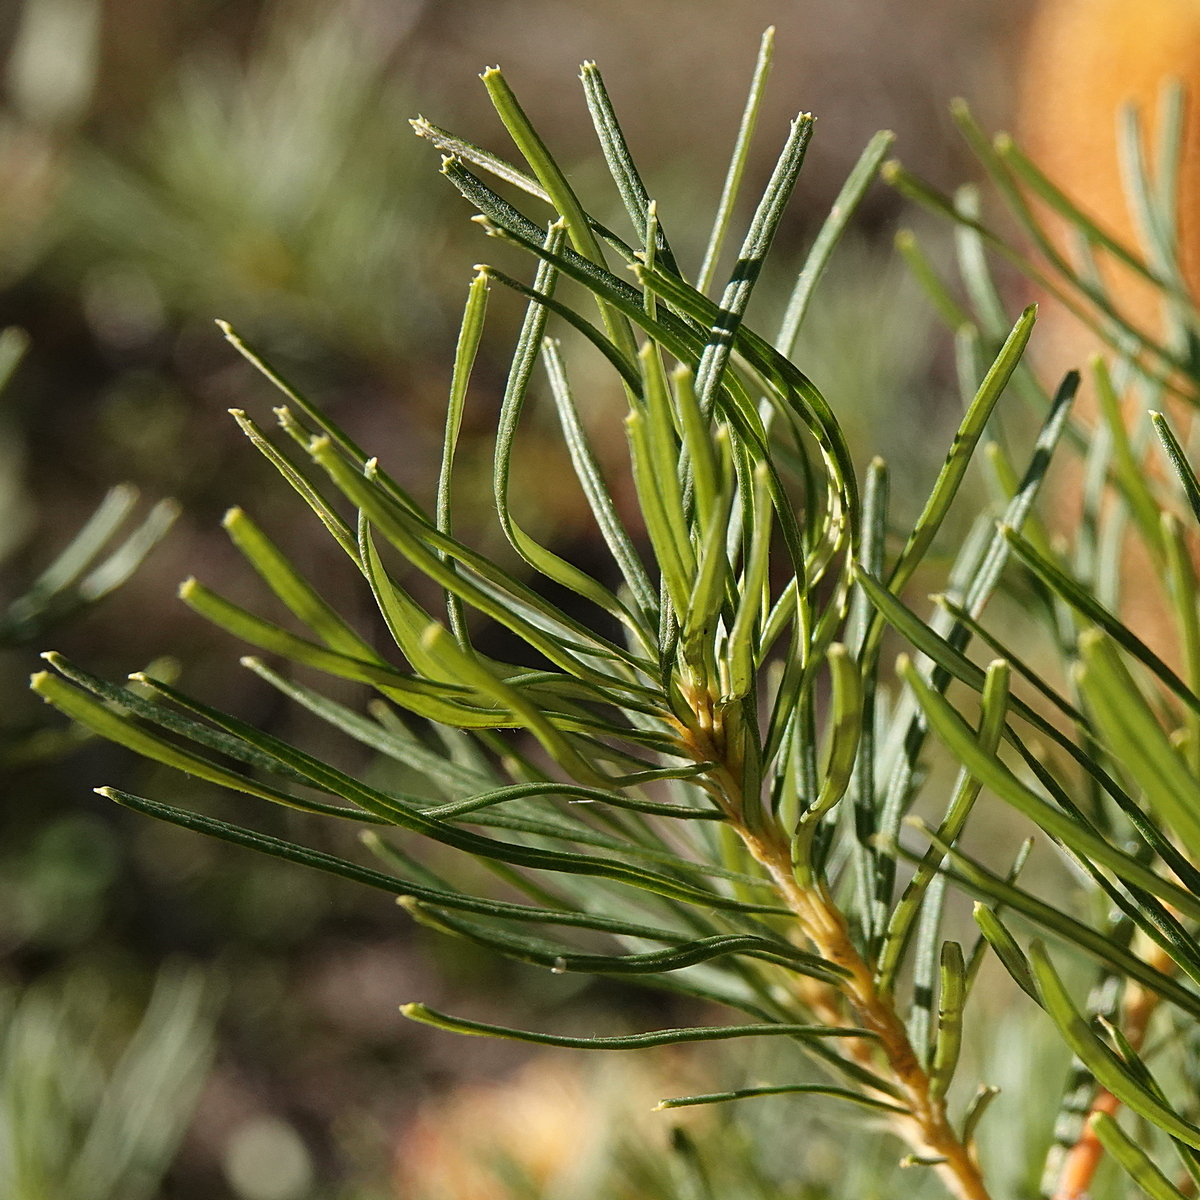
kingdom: Plantae
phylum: Tracheophyta
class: Magnoliopsida
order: Proteales
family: Proteaceae
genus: Banksia
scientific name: Banksia spinulosa
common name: Hairpin banksia
